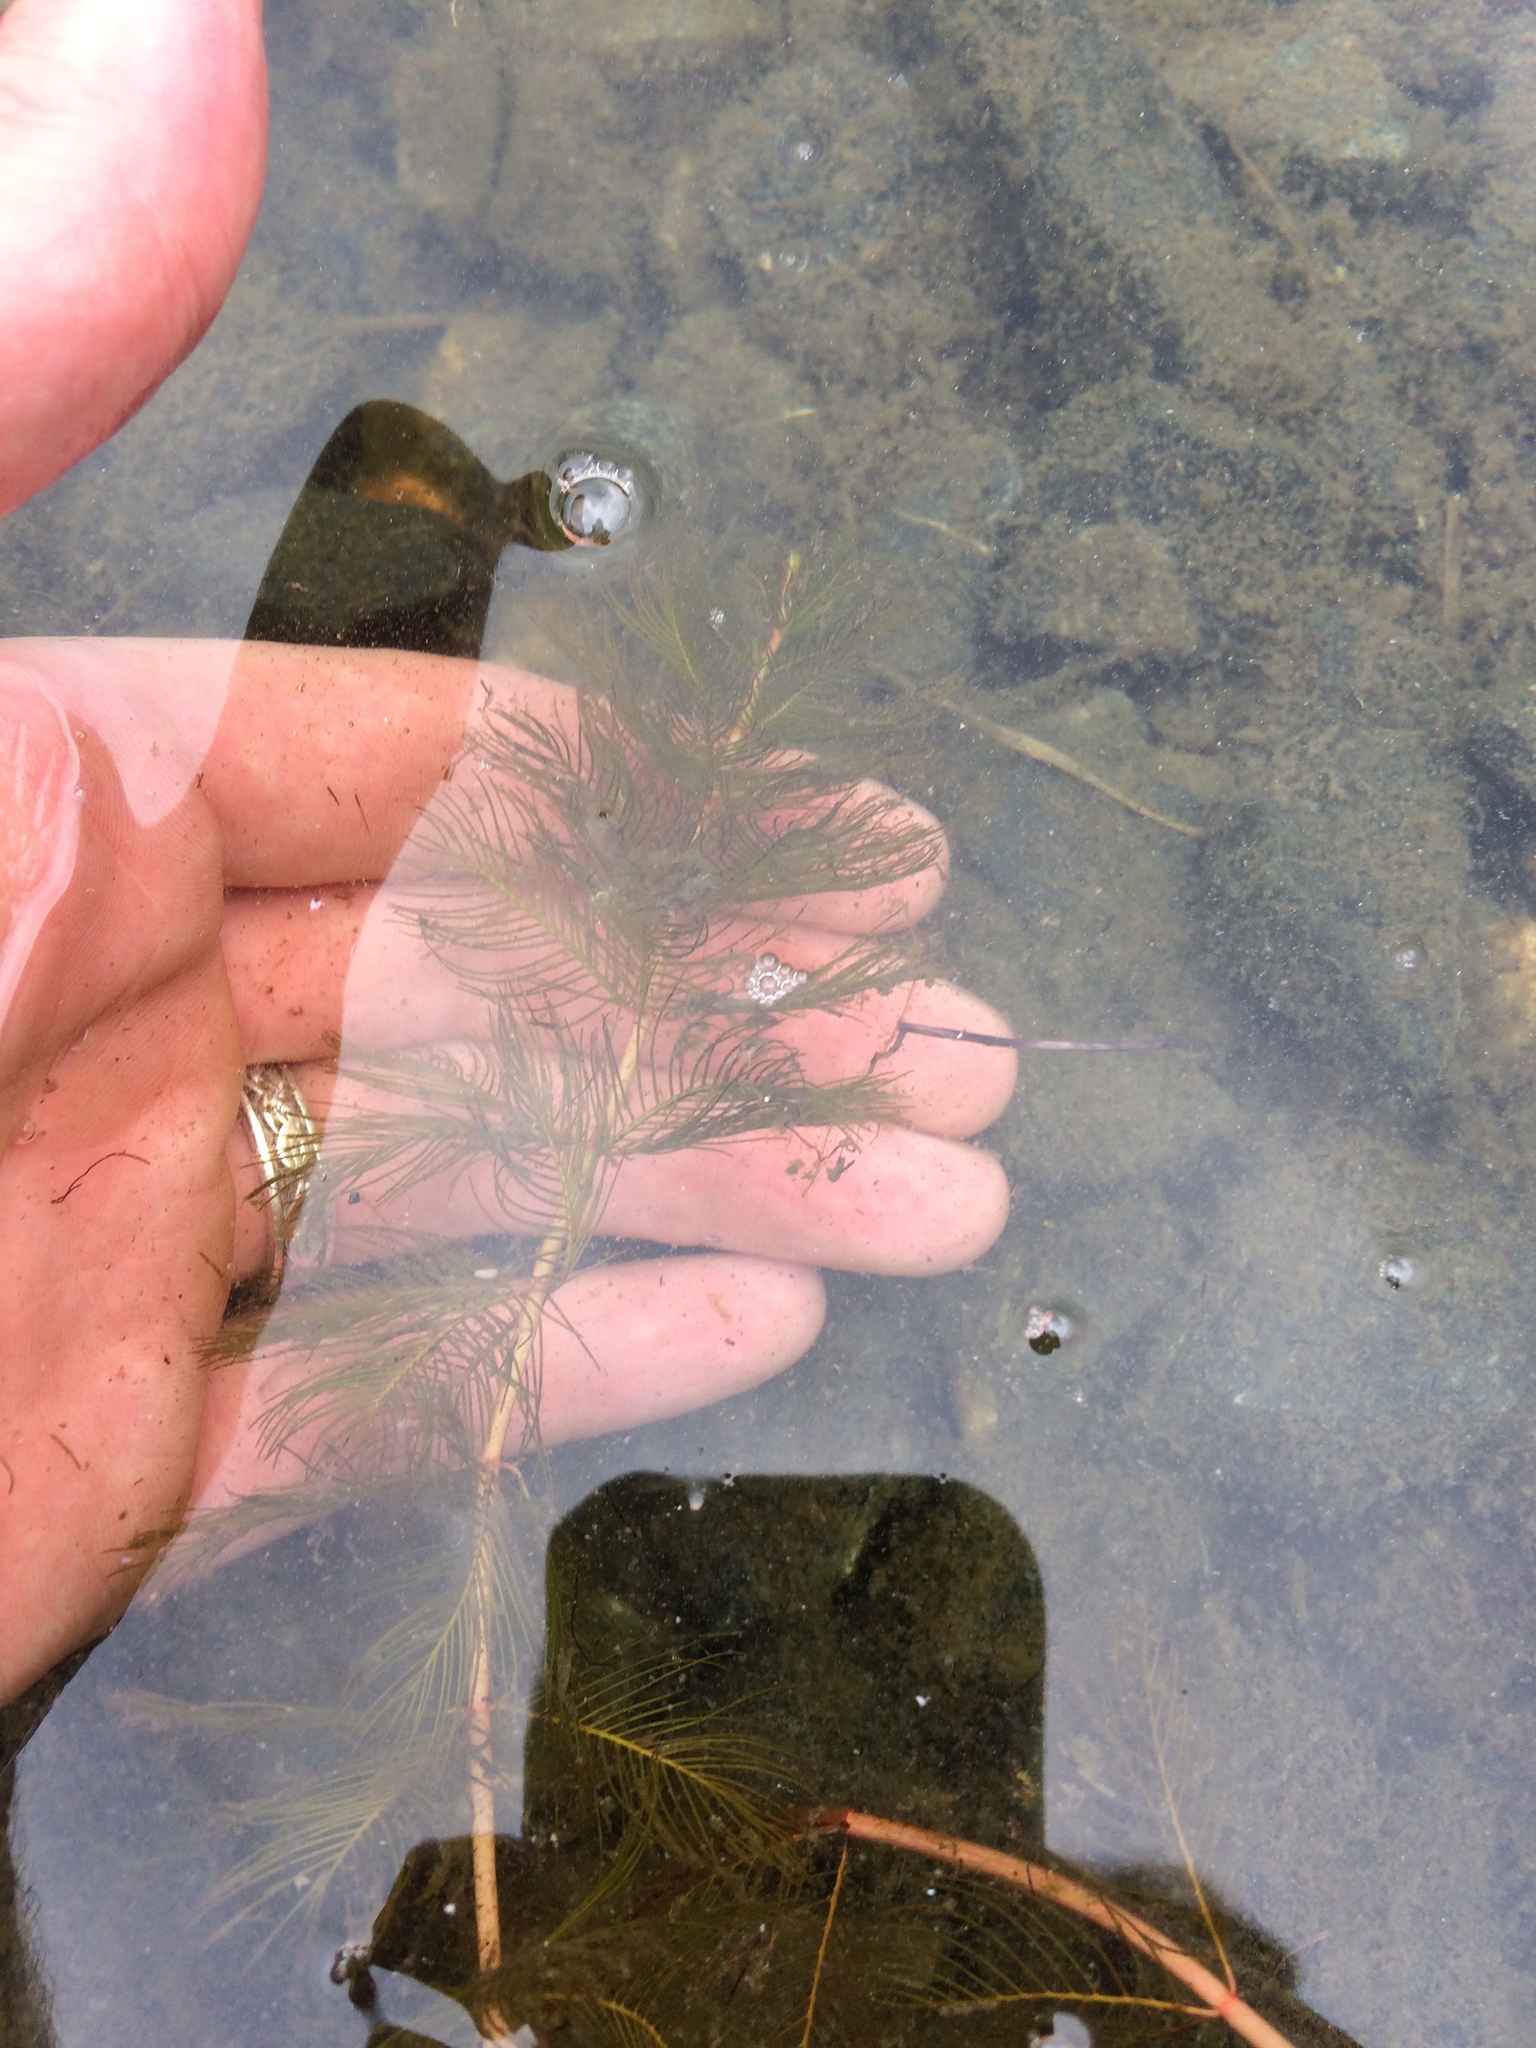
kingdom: Plantae
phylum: Tracheophyta
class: Magnoliopsida
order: Saxifragales
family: Haloragaceae
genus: Myriophyllum
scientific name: Myriophyllum spicatum
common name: Spiked water-milfoil
